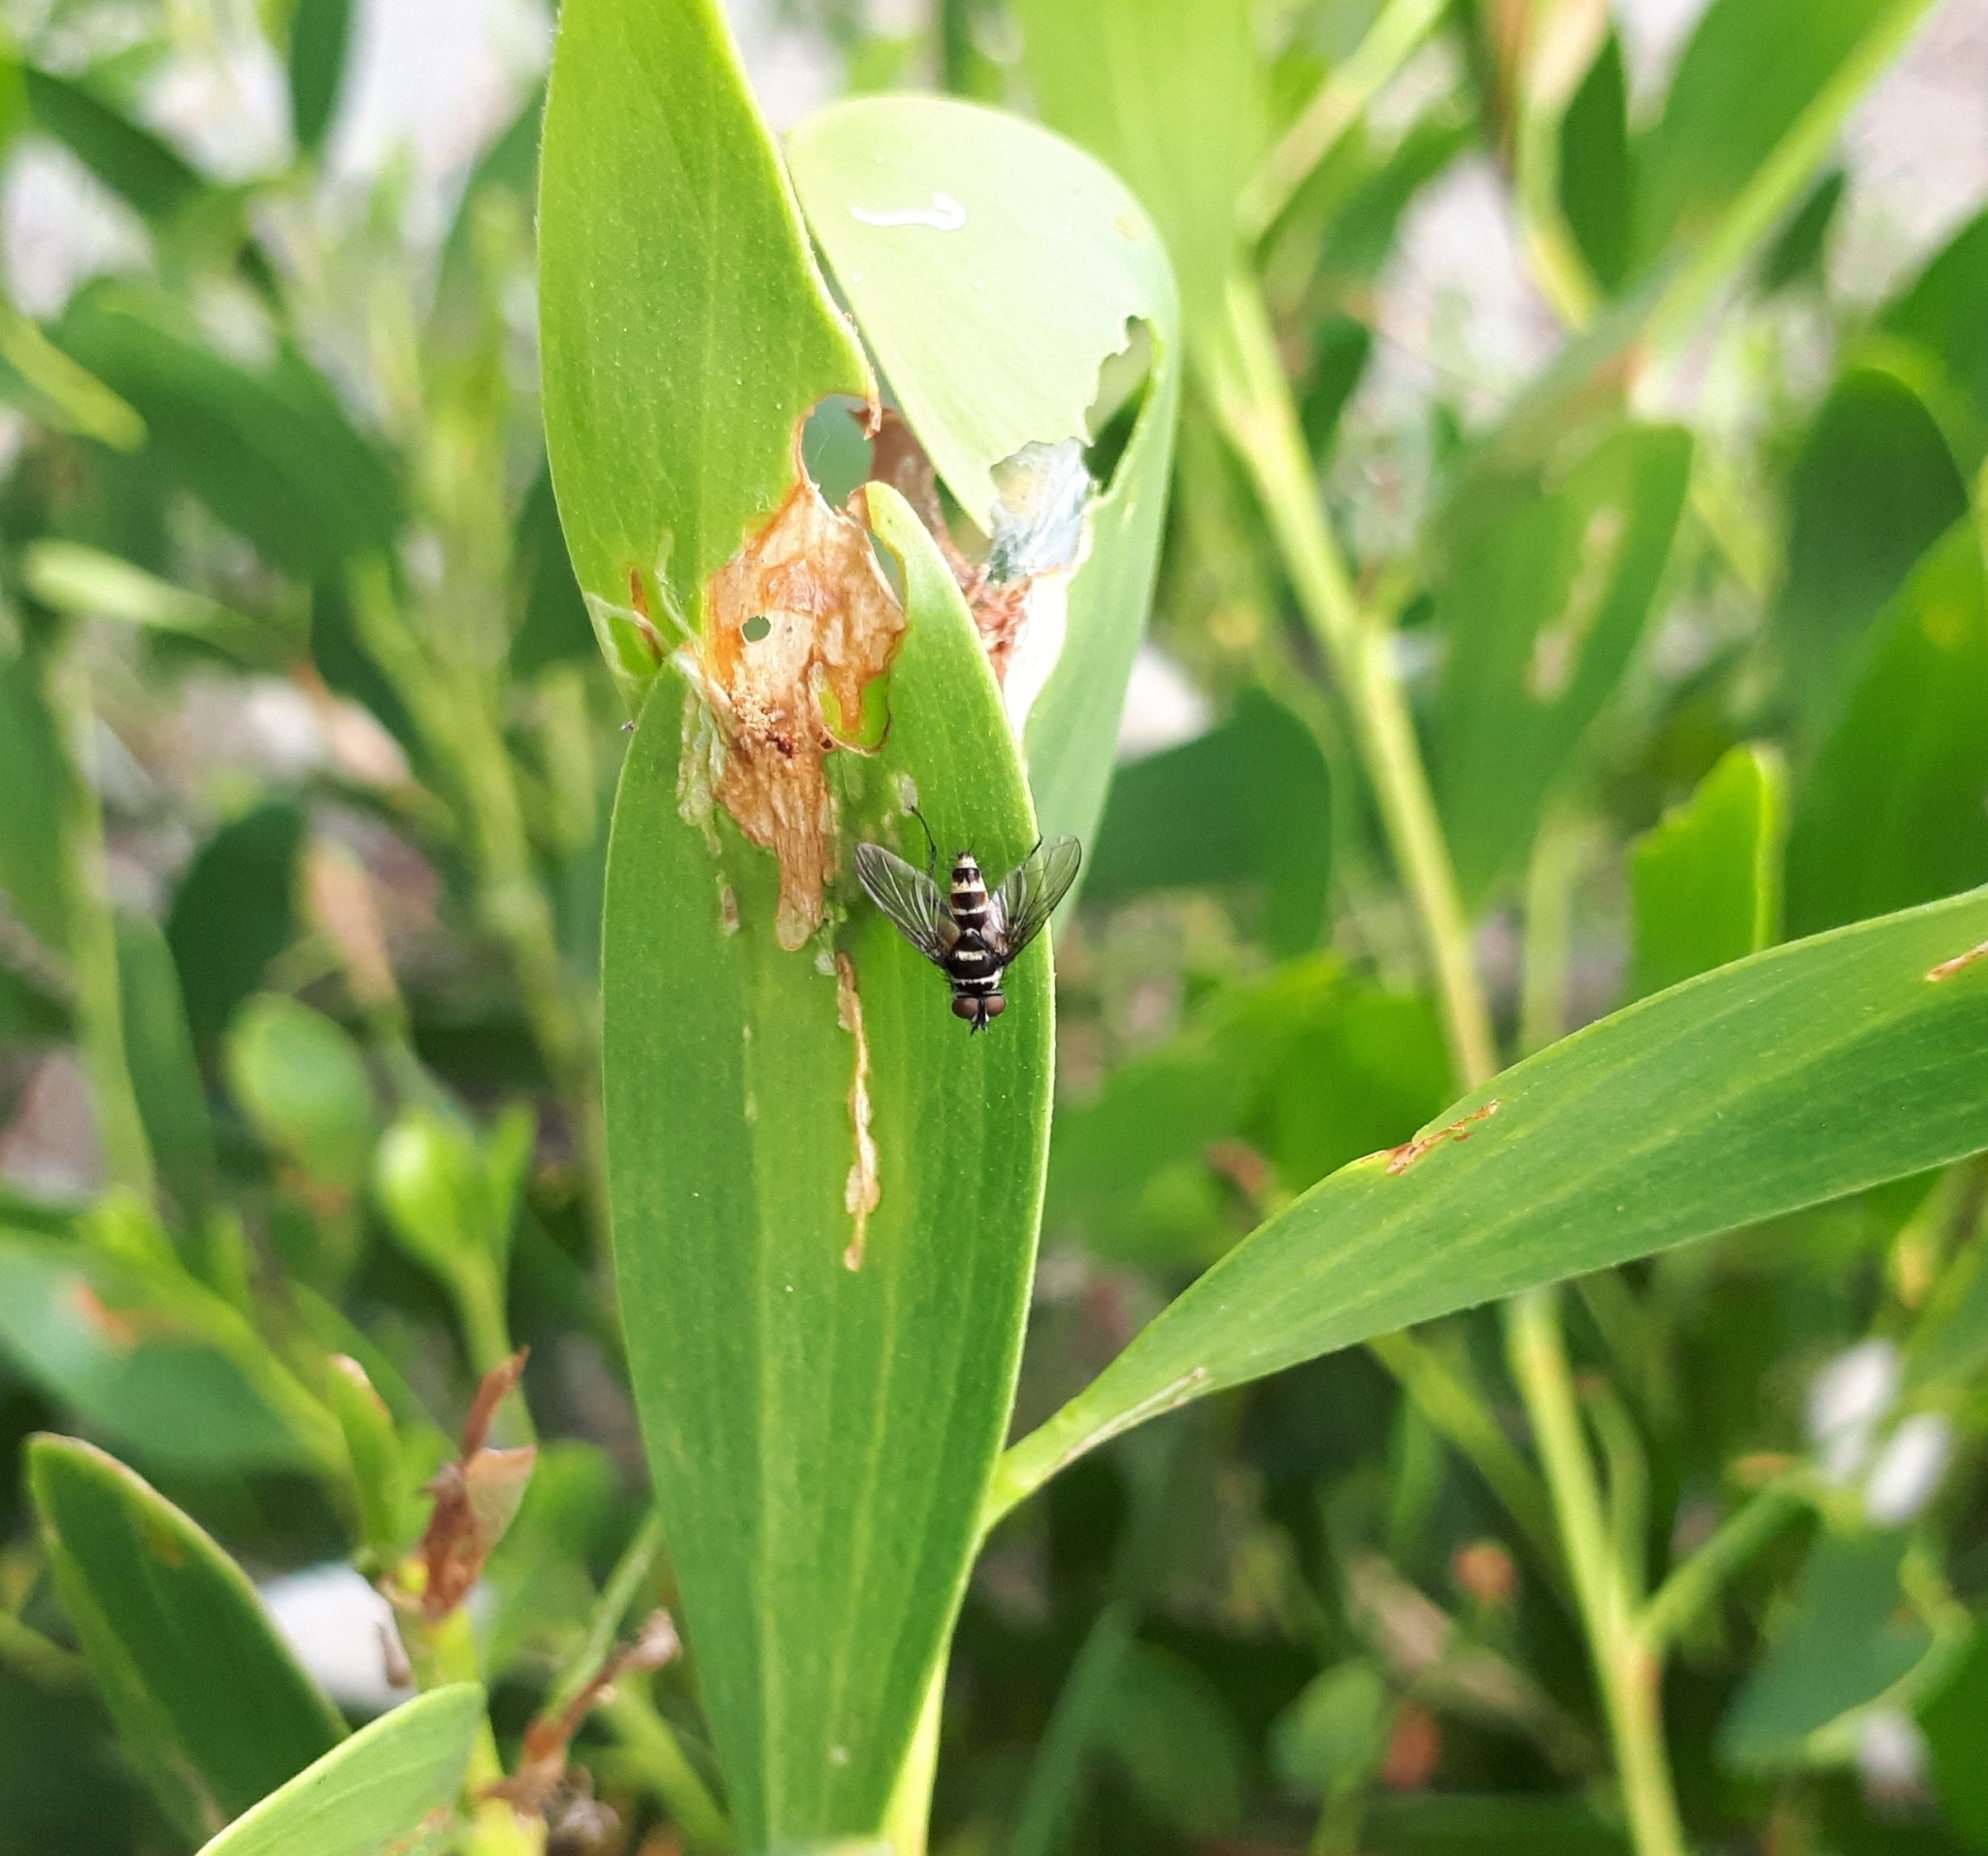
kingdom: Animalia
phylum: Arthropoda
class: Insecta
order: Diptera
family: Tachinidae
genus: Trigonospila
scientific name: Trigonospila brevifacies
